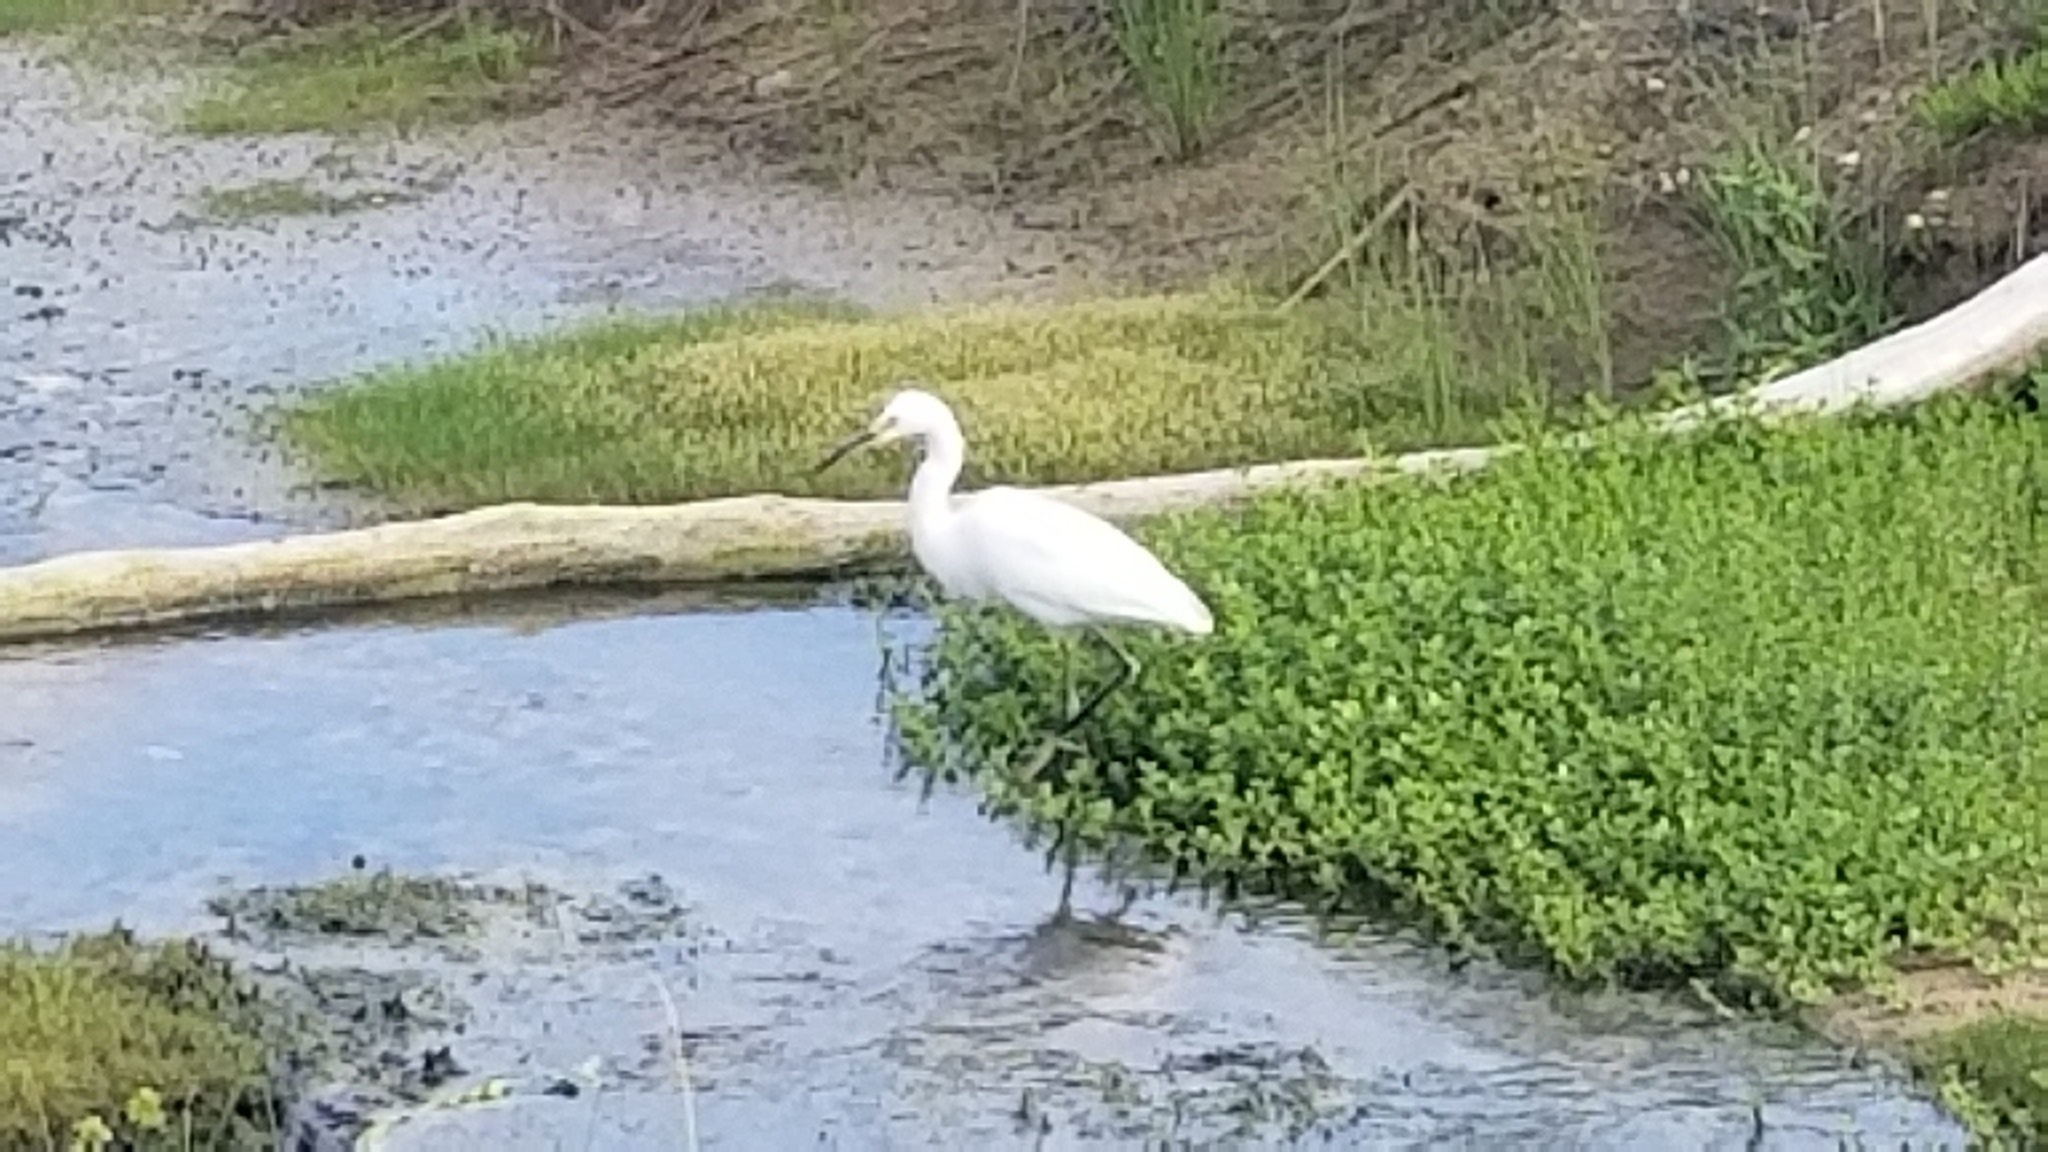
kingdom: Animalia
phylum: Chordata
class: Aves
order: Pelecaniformes
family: Ardeidae
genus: Egretta
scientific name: Egretta thula
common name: Snowy egret
